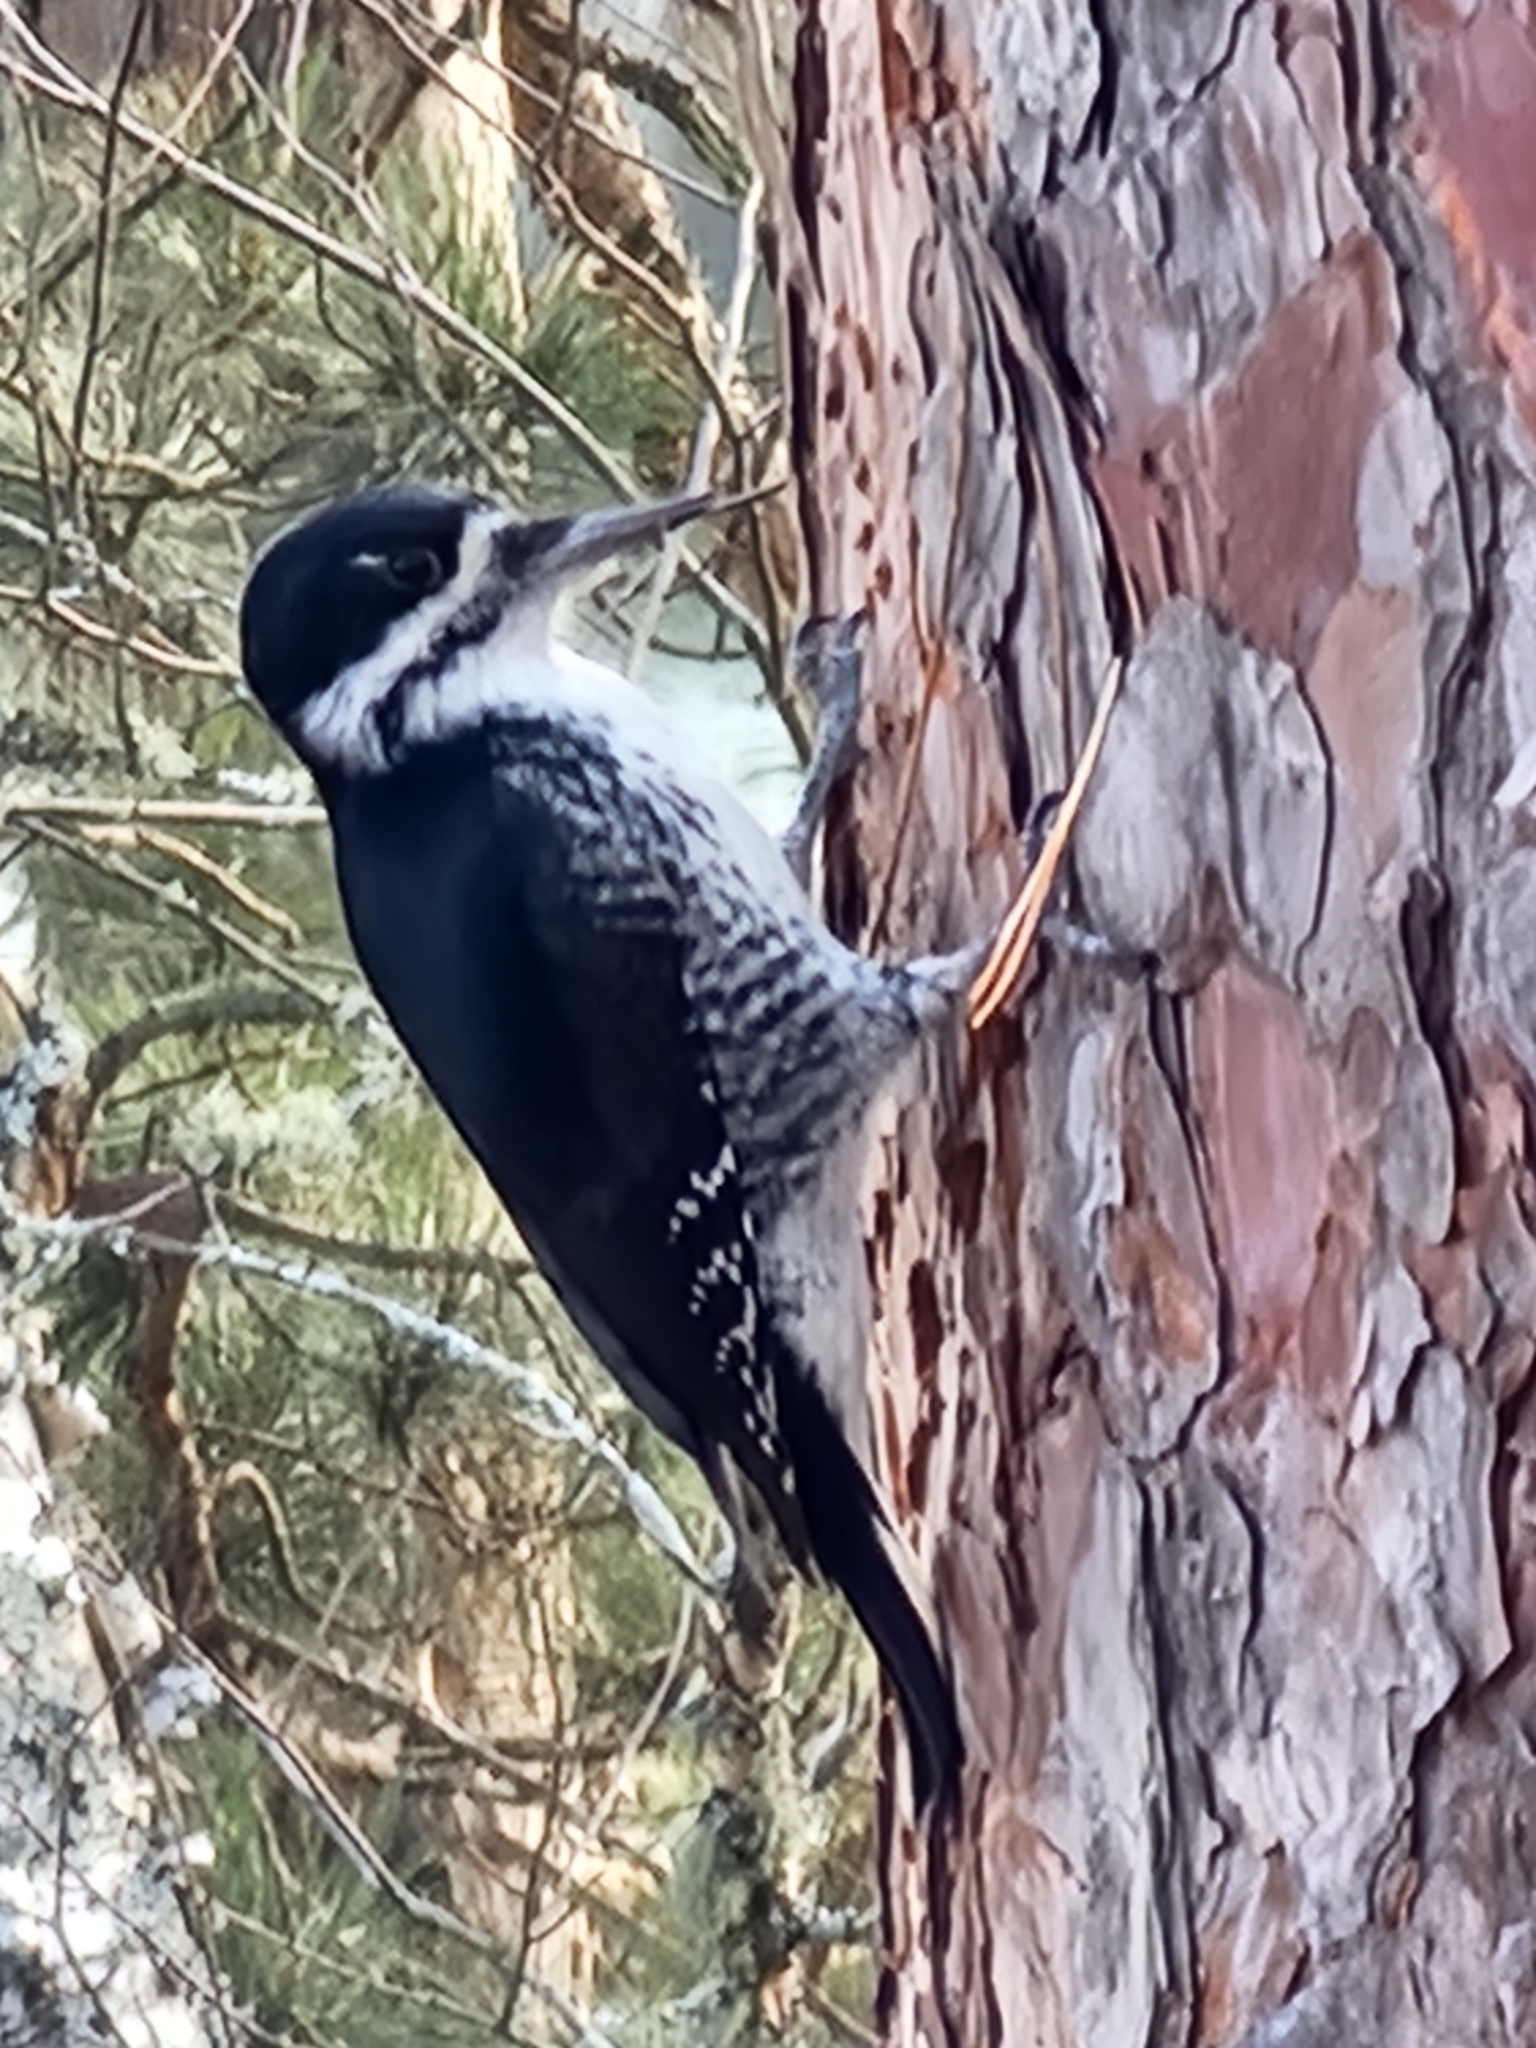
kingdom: Animalia
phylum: Chordata
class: Aves
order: Piciformes
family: Picidae
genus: Picoides
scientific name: Picoides arcticus
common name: Black-backed woodpecker
